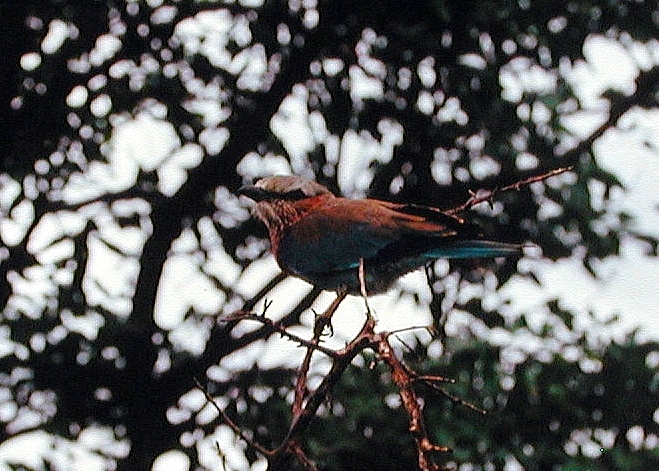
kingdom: Animalia
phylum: Chordata
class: Aves
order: Coraciiformes
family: Coraciidae
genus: Coracias
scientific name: Coracias caudatus
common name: Lilac-breasted roller
